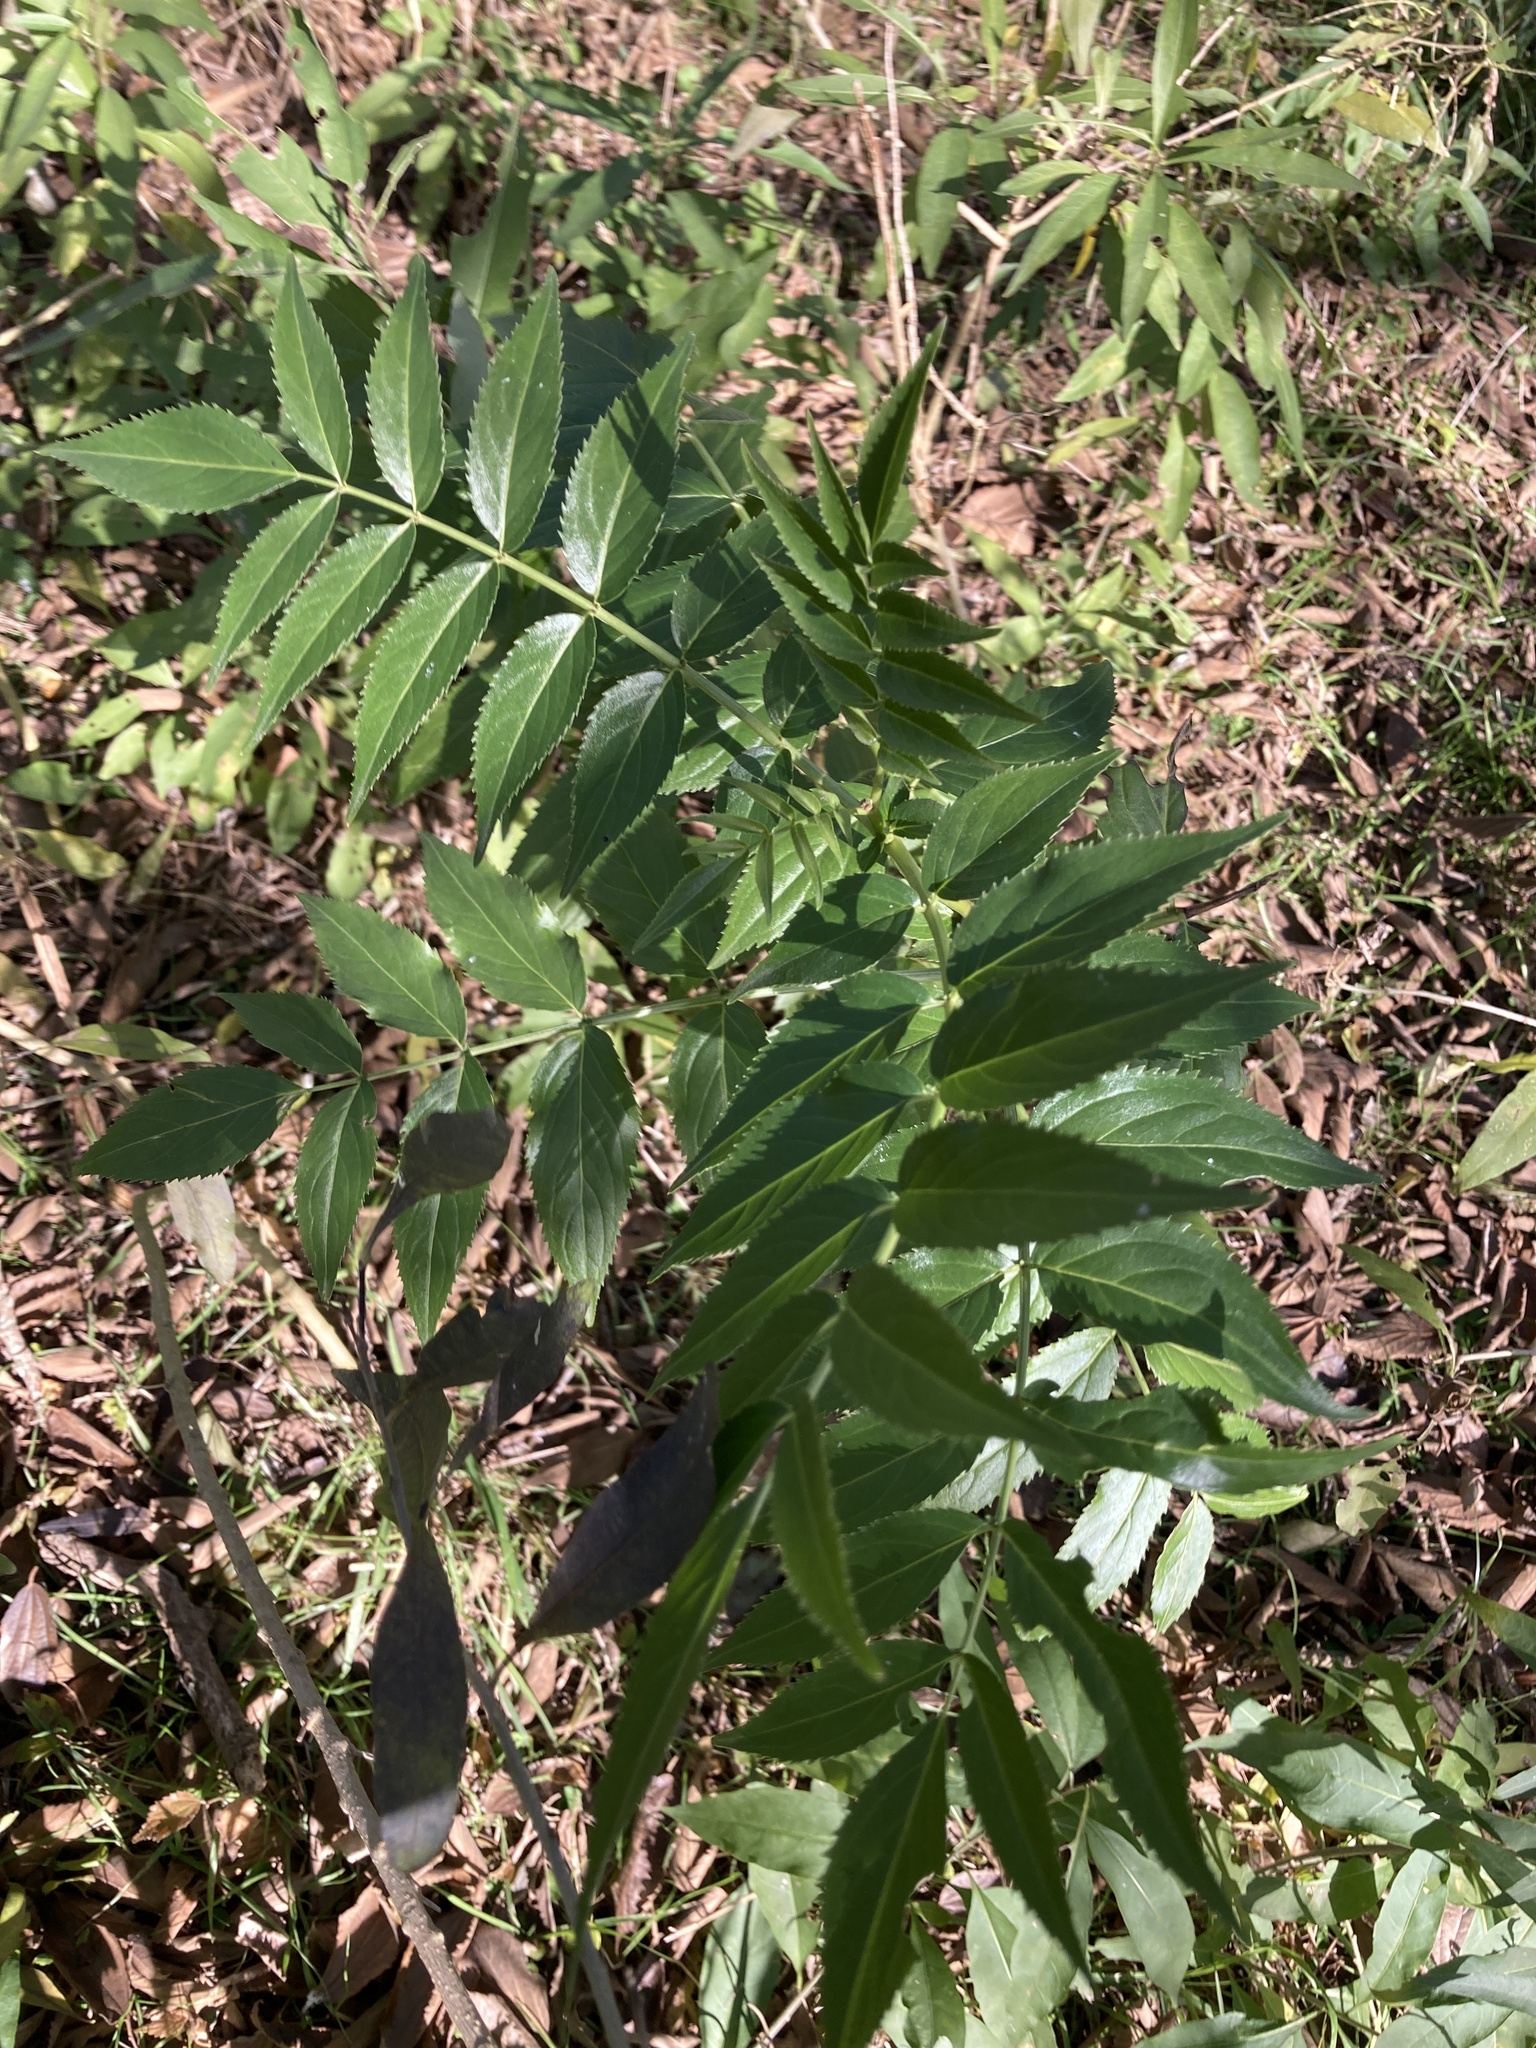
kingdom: Plantae
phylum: Tracheophyta
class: Magnoliopsida
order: Dipsacales
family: Viburnaceae
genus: Sambucus
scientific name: Sambucus australis
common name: Southern elder
